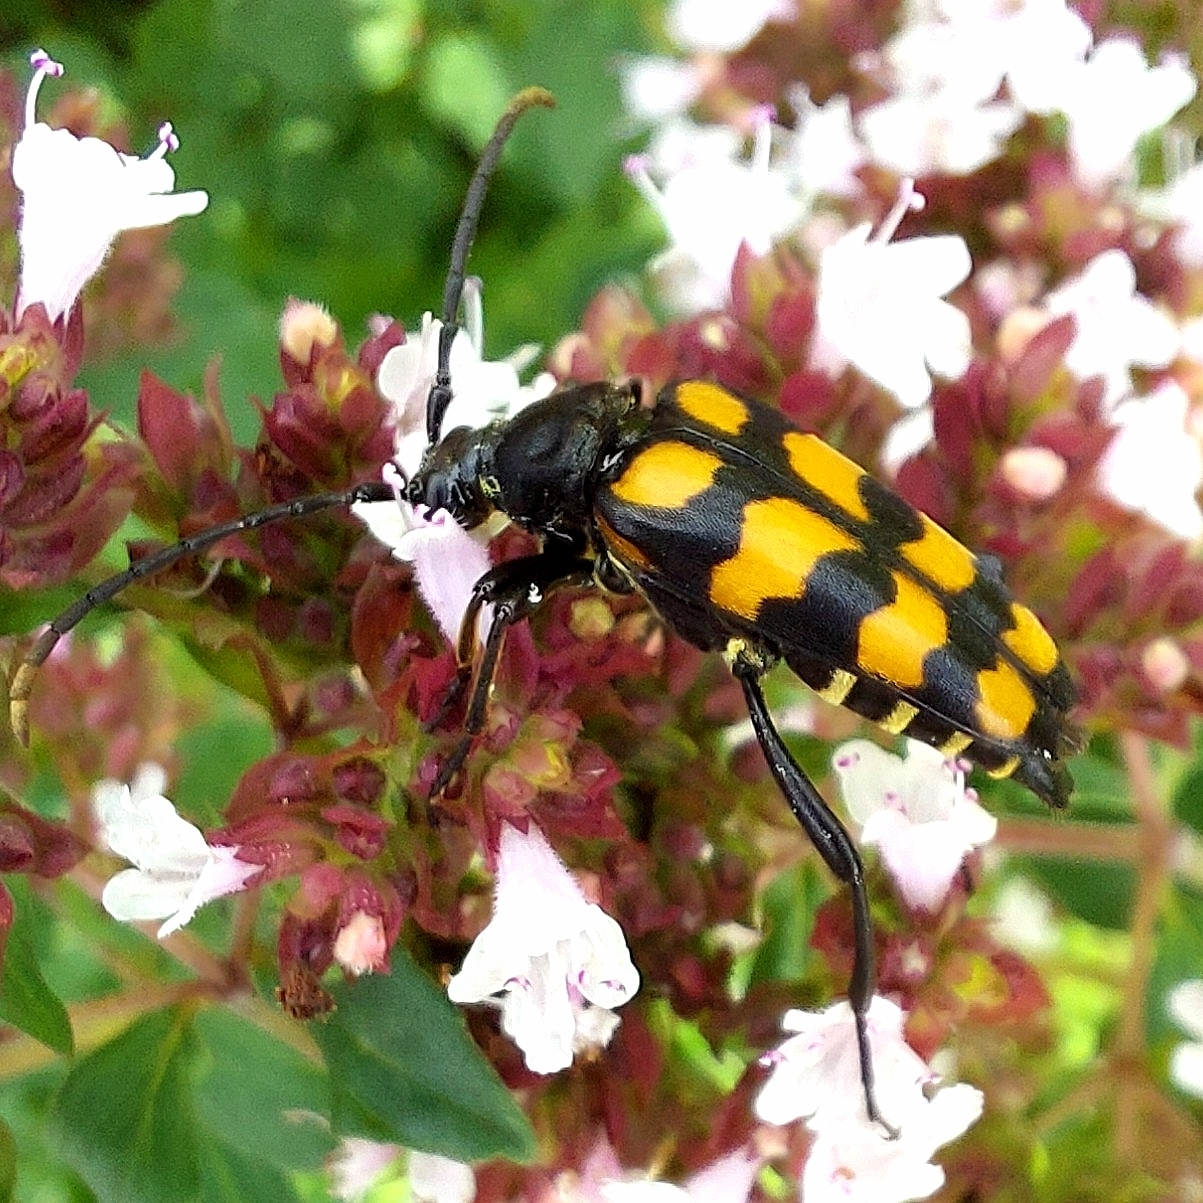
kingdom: Animalia
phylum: Arthropoda
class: Insecta
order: Coleoptera
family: Cerambycidae
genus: Leptura
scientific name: Leptura quadrifasciata
